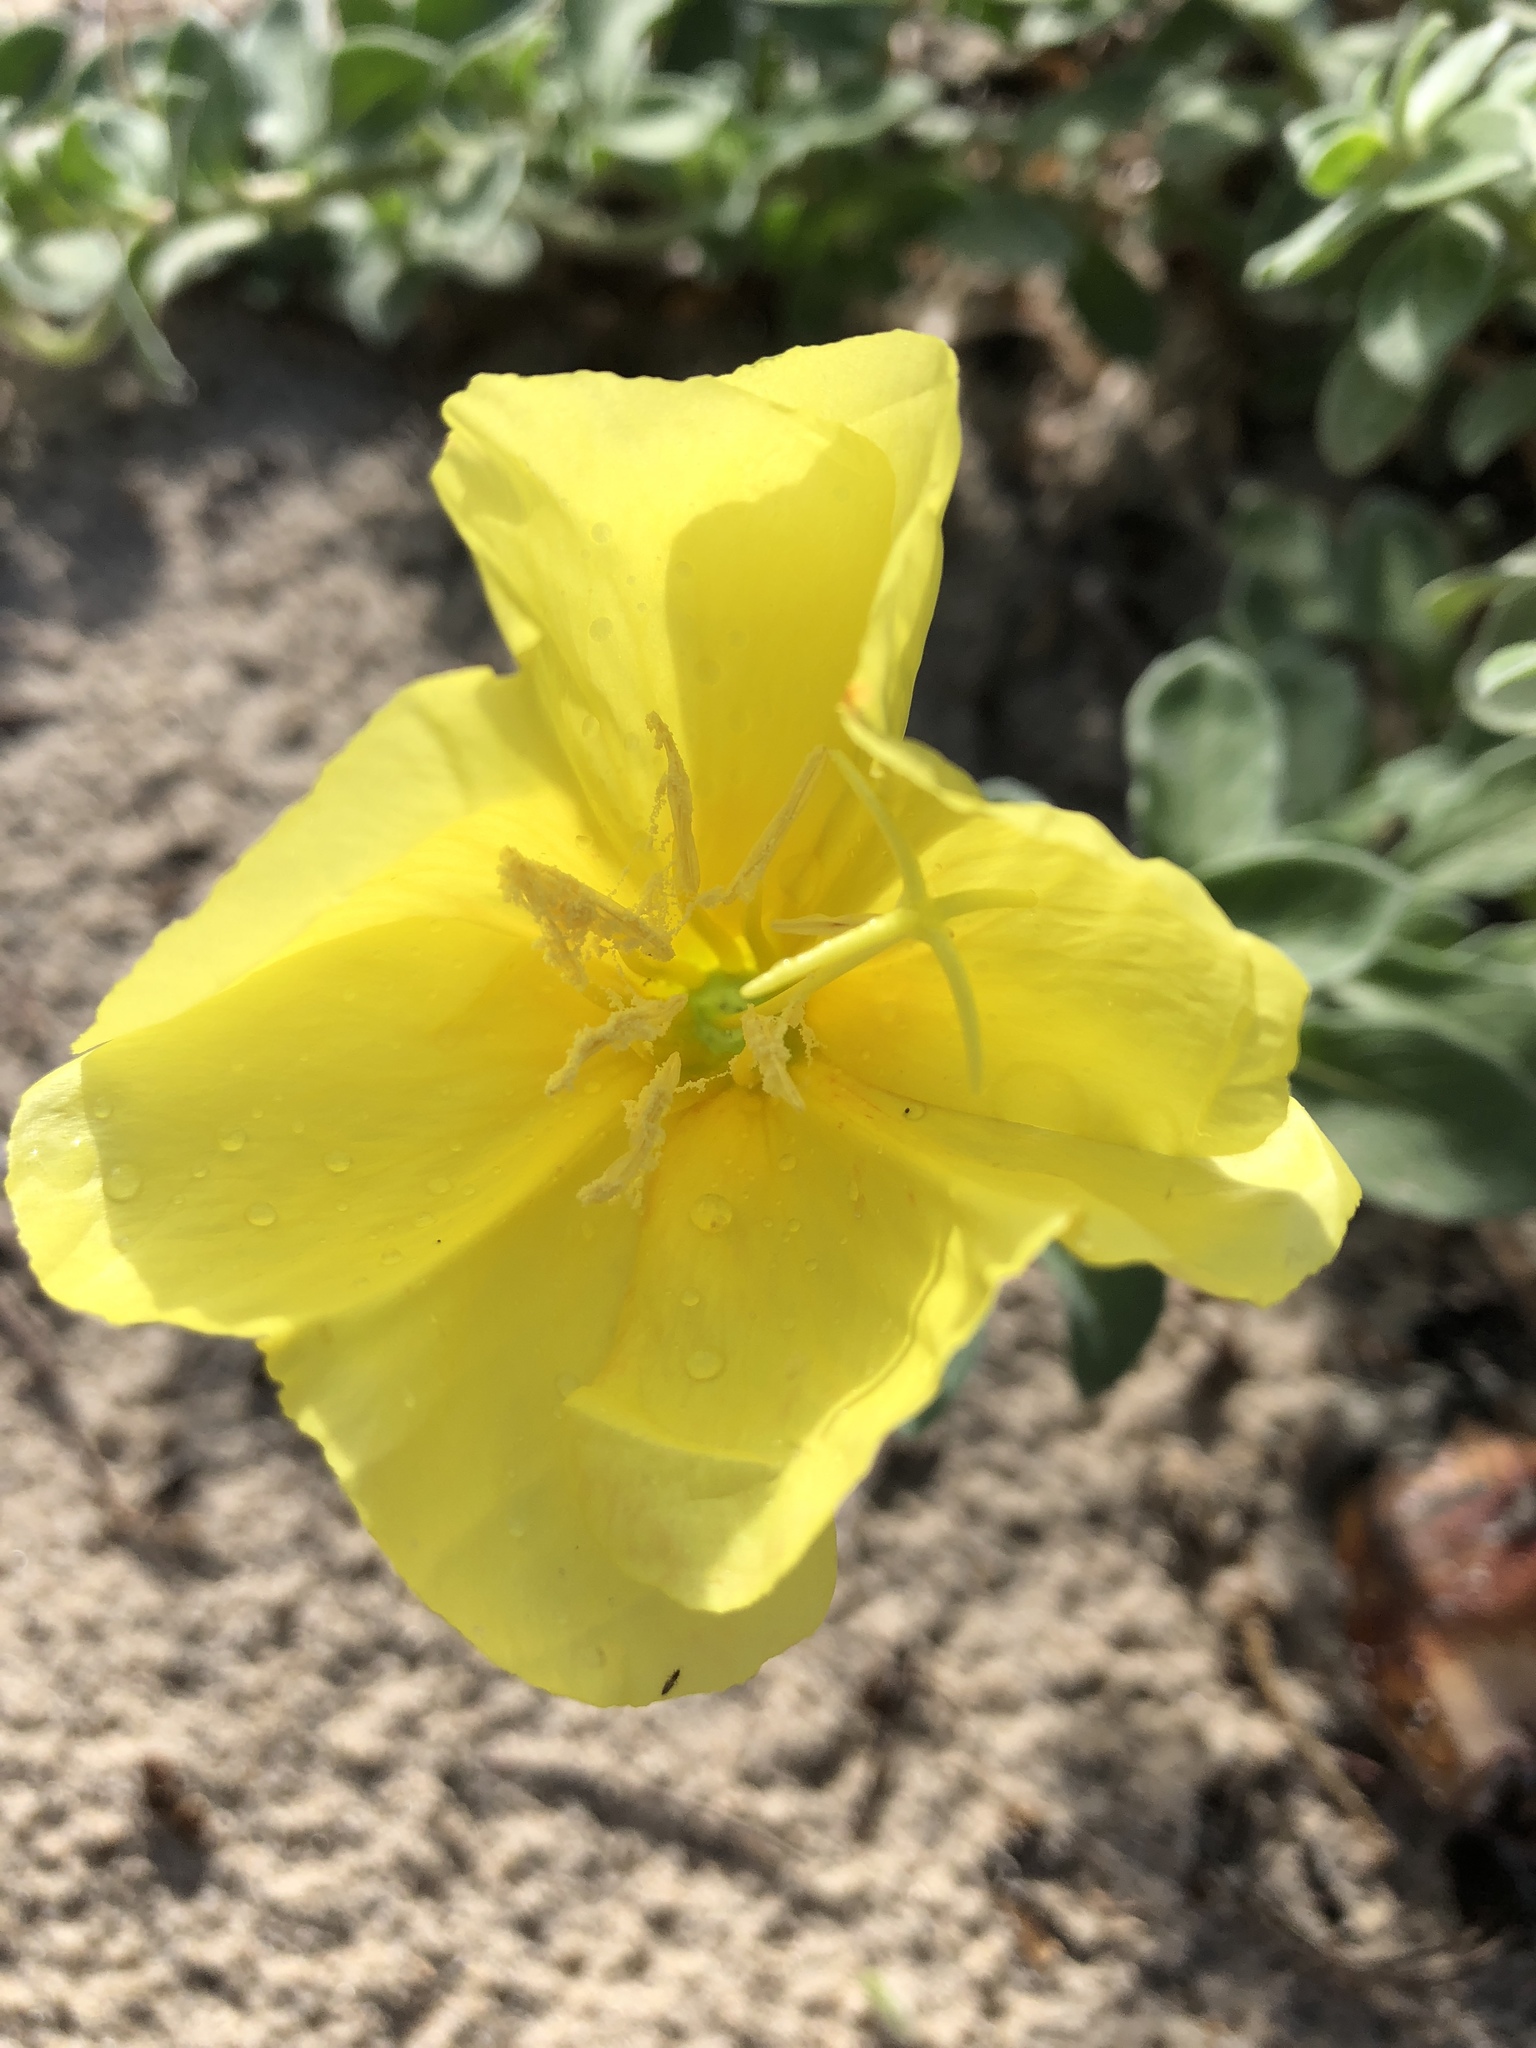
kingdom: Plantae
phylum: Tracheophyta
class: Magnoliopsida
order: Myrtales
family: Onagraceae
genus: Oenothera
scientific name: Oenothera drummondii
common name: Beach evening-primrose
